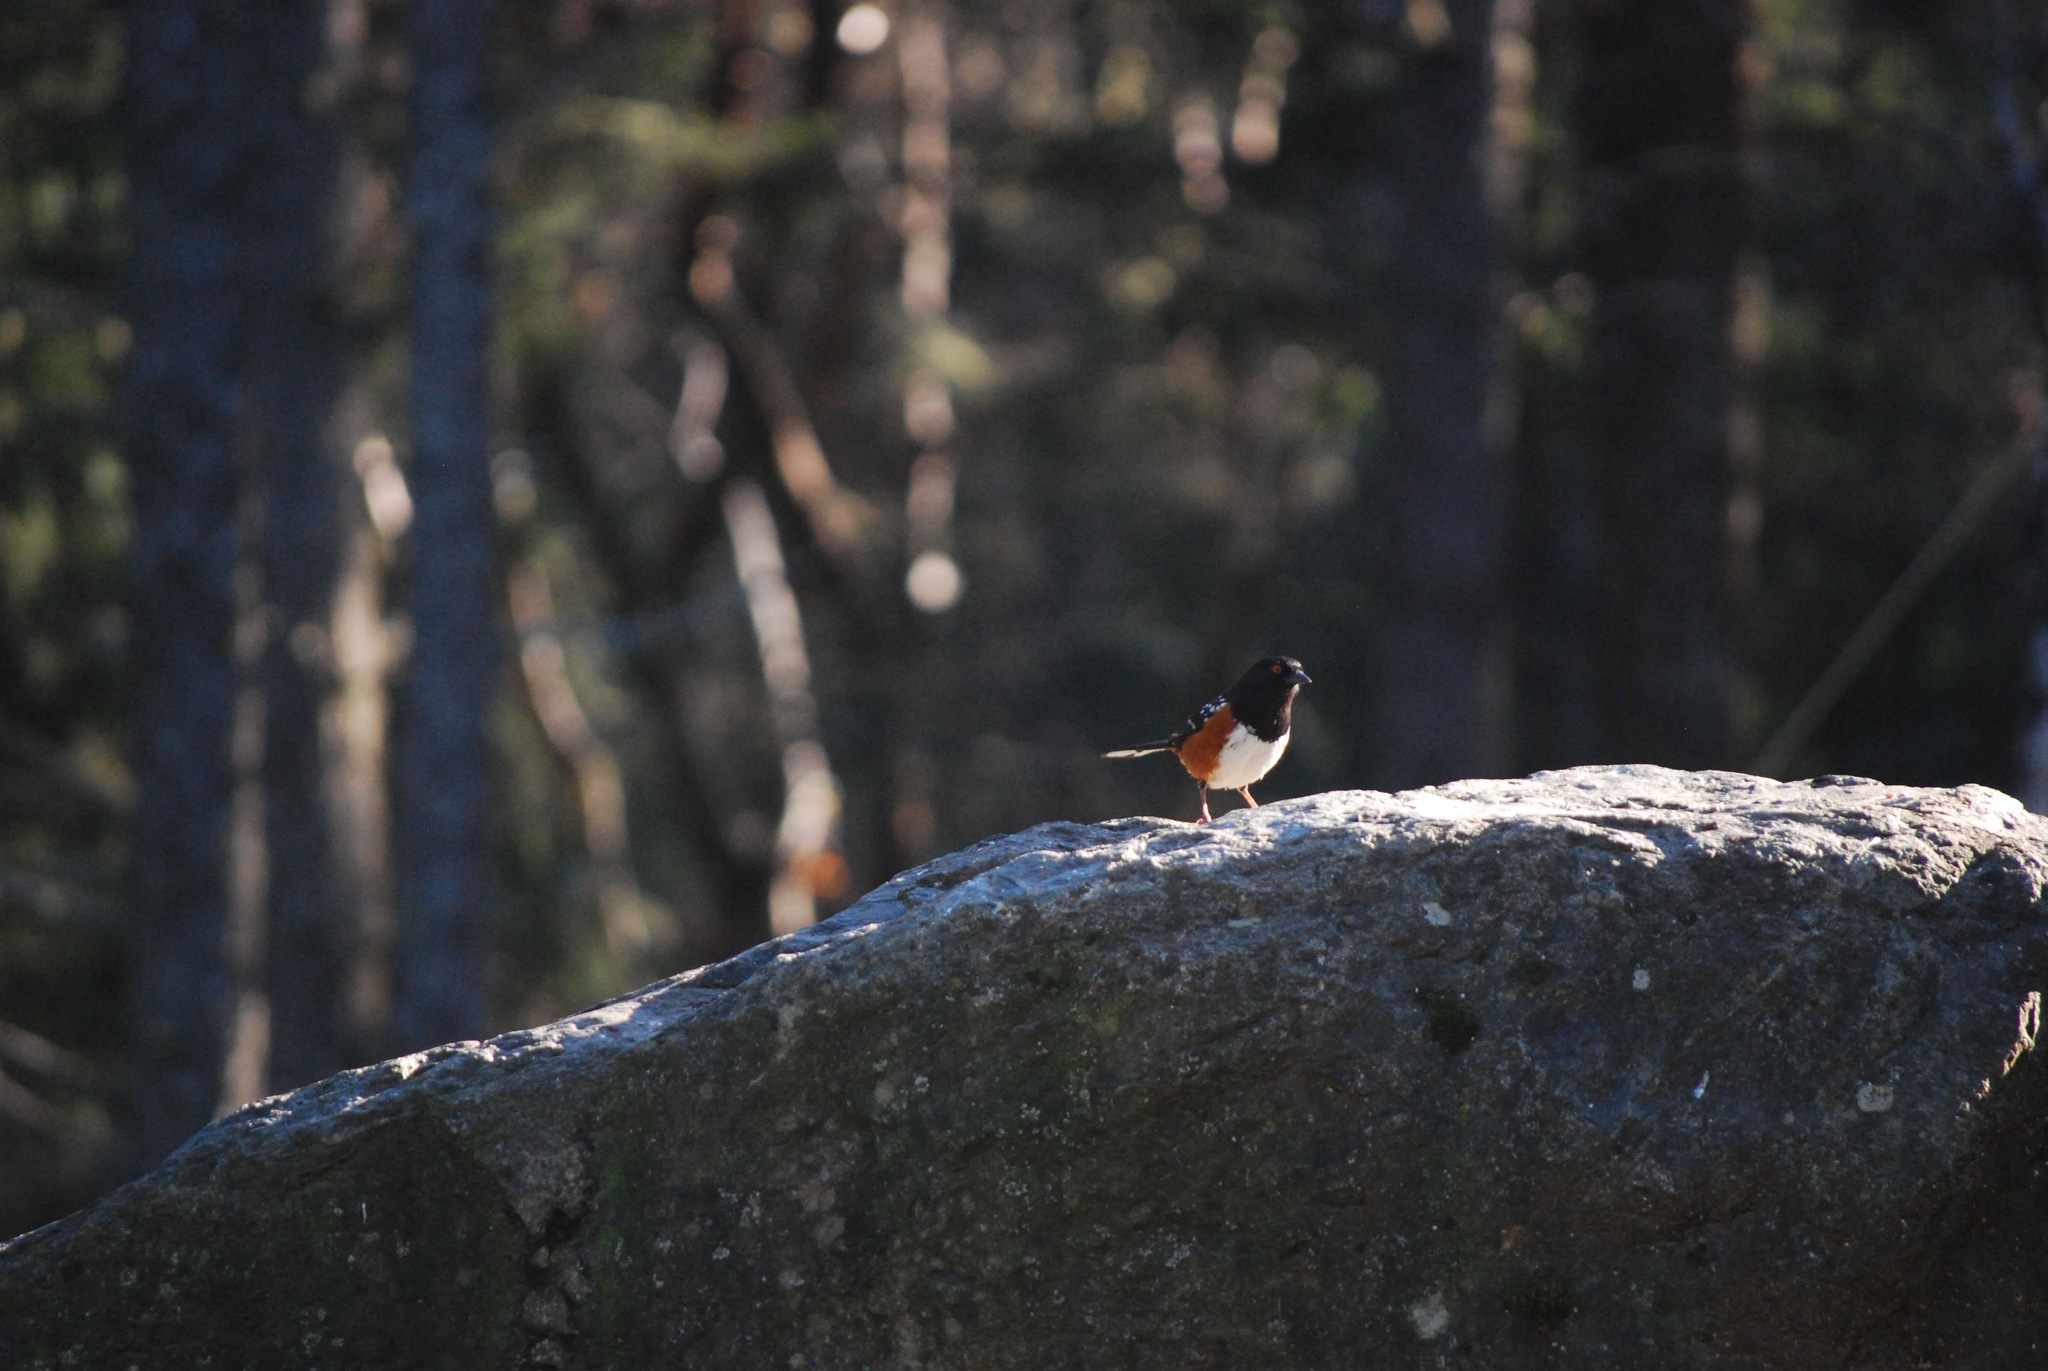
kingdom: Animalia
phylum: Chordata
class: Aves
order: Passeriformes
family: Passerellidae
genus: Pipilo
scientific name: Pipilo maculatus
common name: Spotted towhee
